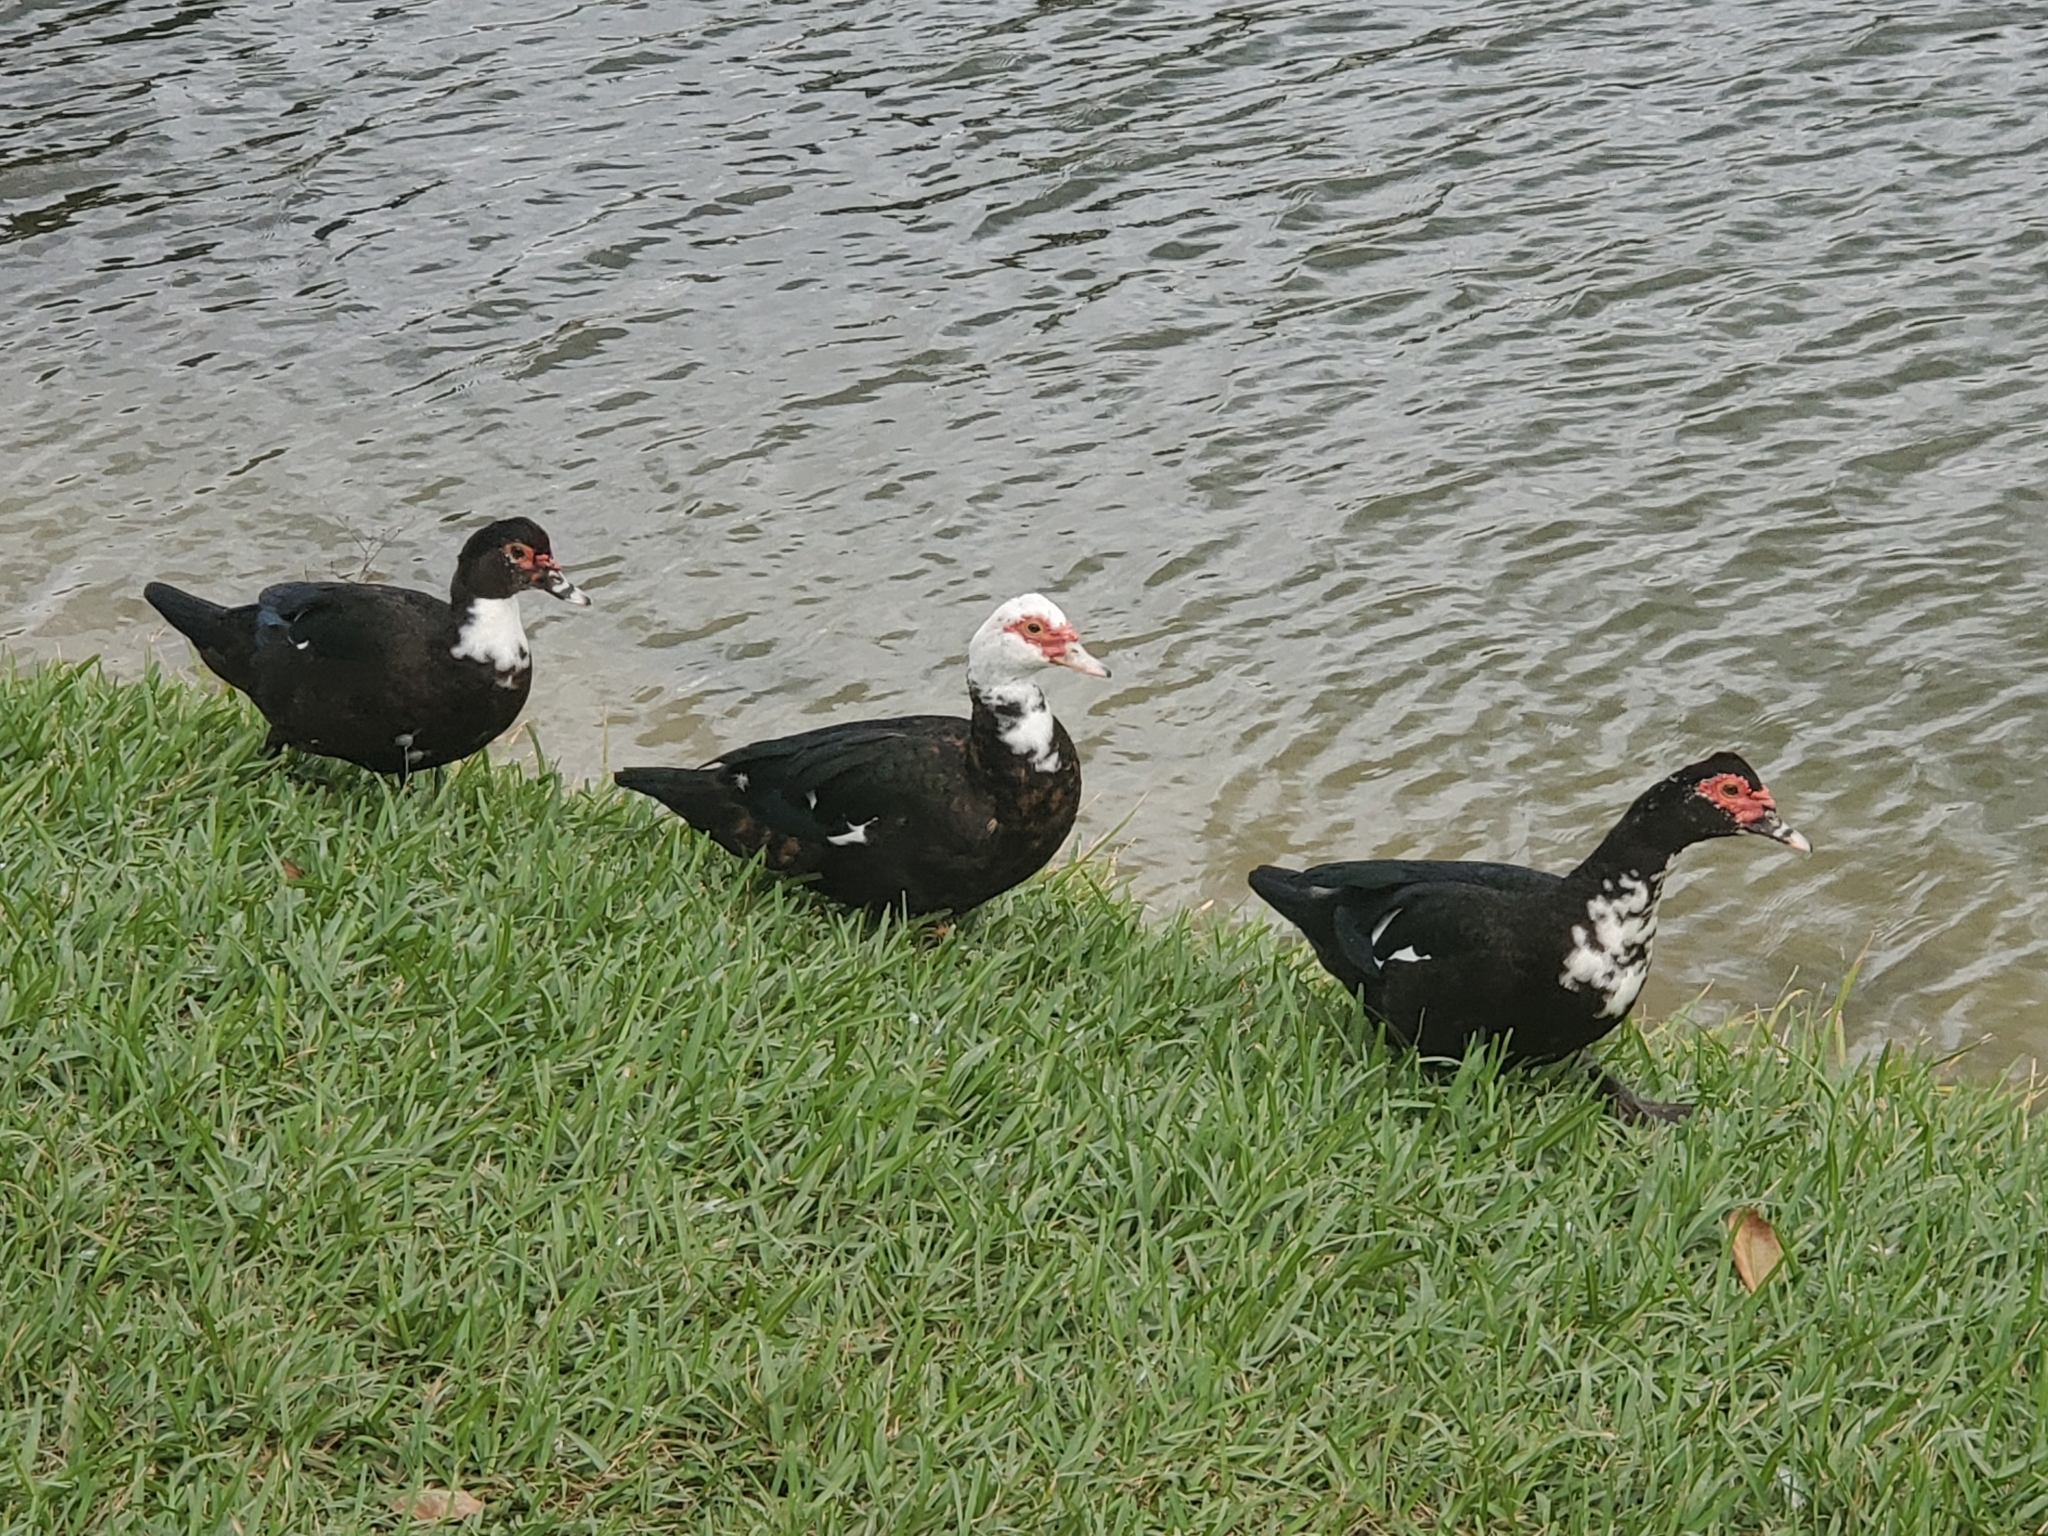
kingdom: Animalia
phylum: Chordata
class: Aves
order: Anseriformes
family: Anatidae
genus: Cairina
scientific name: Cairina moschata
